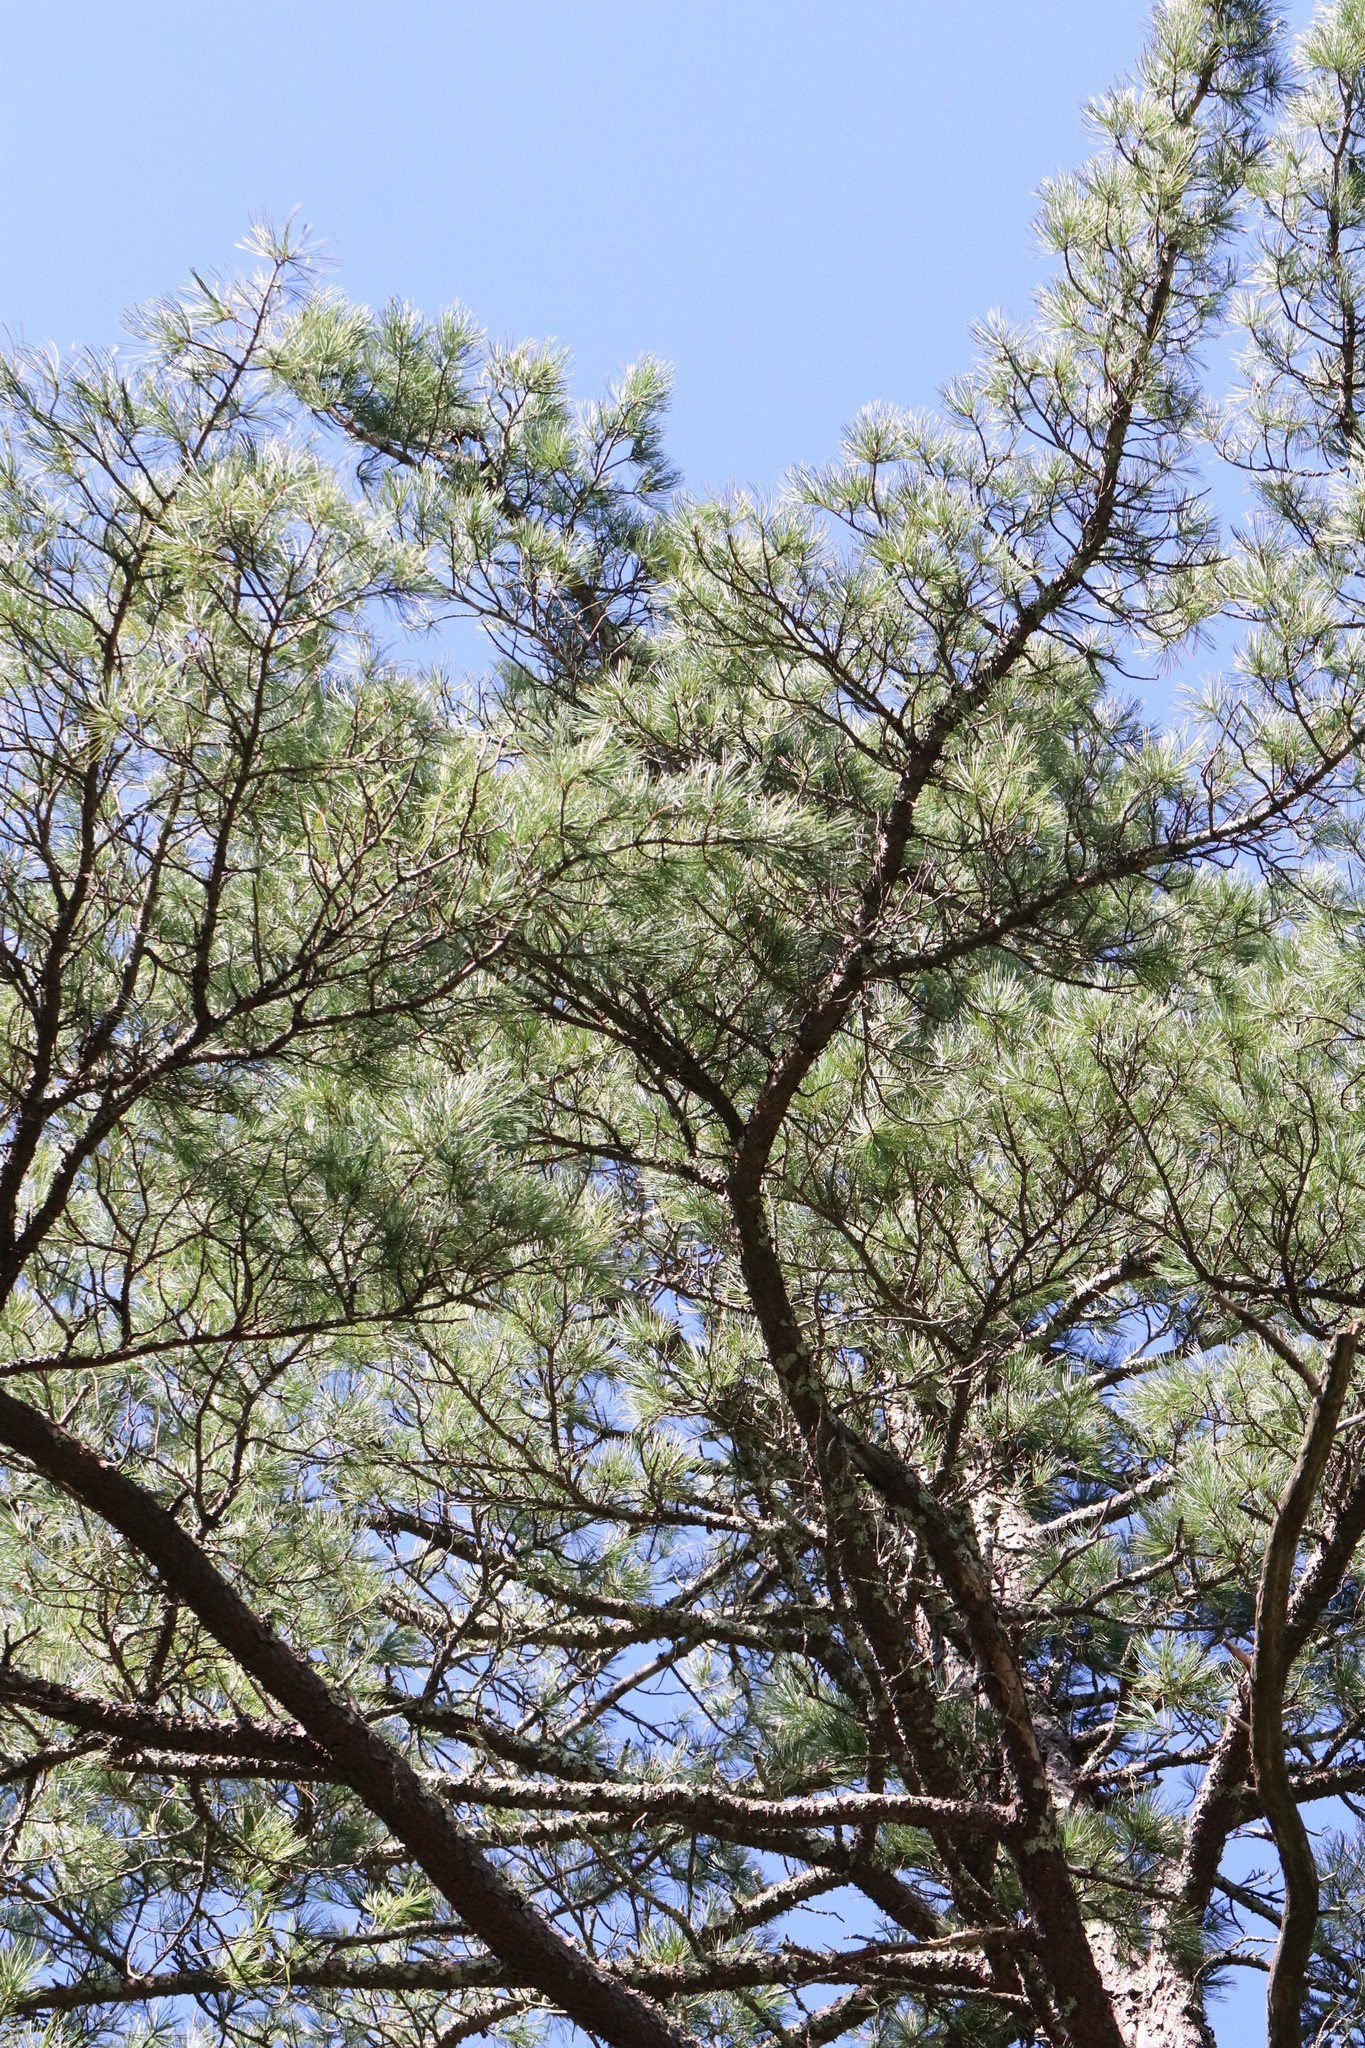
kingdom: Plantae
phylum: Tracheophyta
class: Pinopsida
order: Pinales
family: Pinaceae
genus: Pinus
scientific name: Pinus koraiensis
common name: Korean pine
